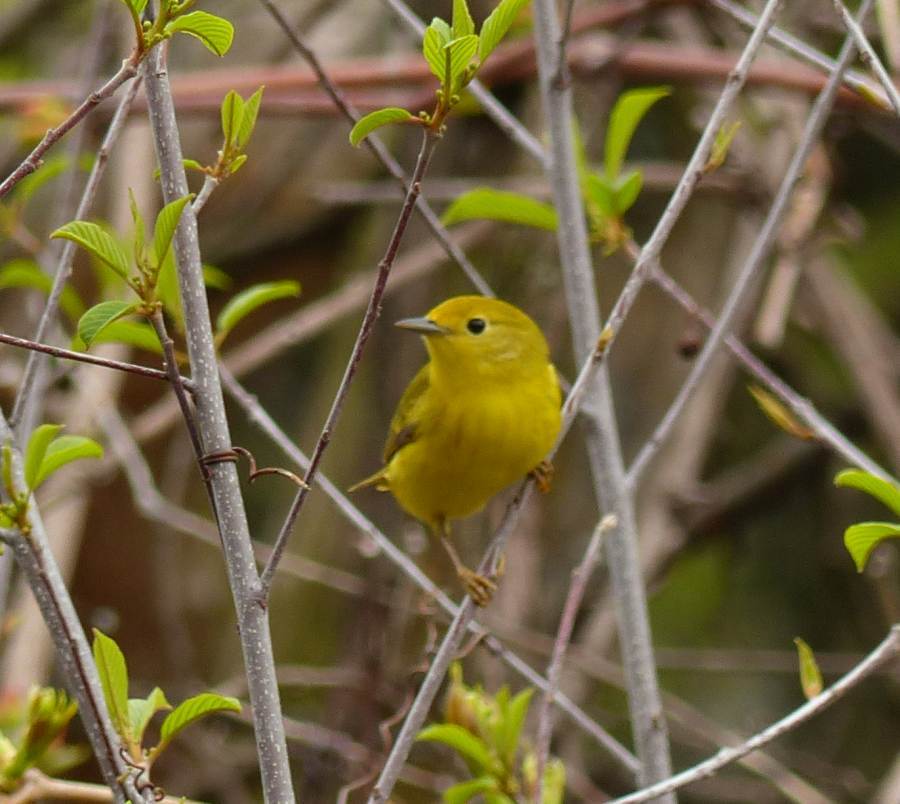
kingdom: Animalia
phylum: Chordata
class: Aves
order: Passeriformes
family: Parulidae
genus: Setophaga
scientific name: Setophaga petechia
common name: Yellow warbler
